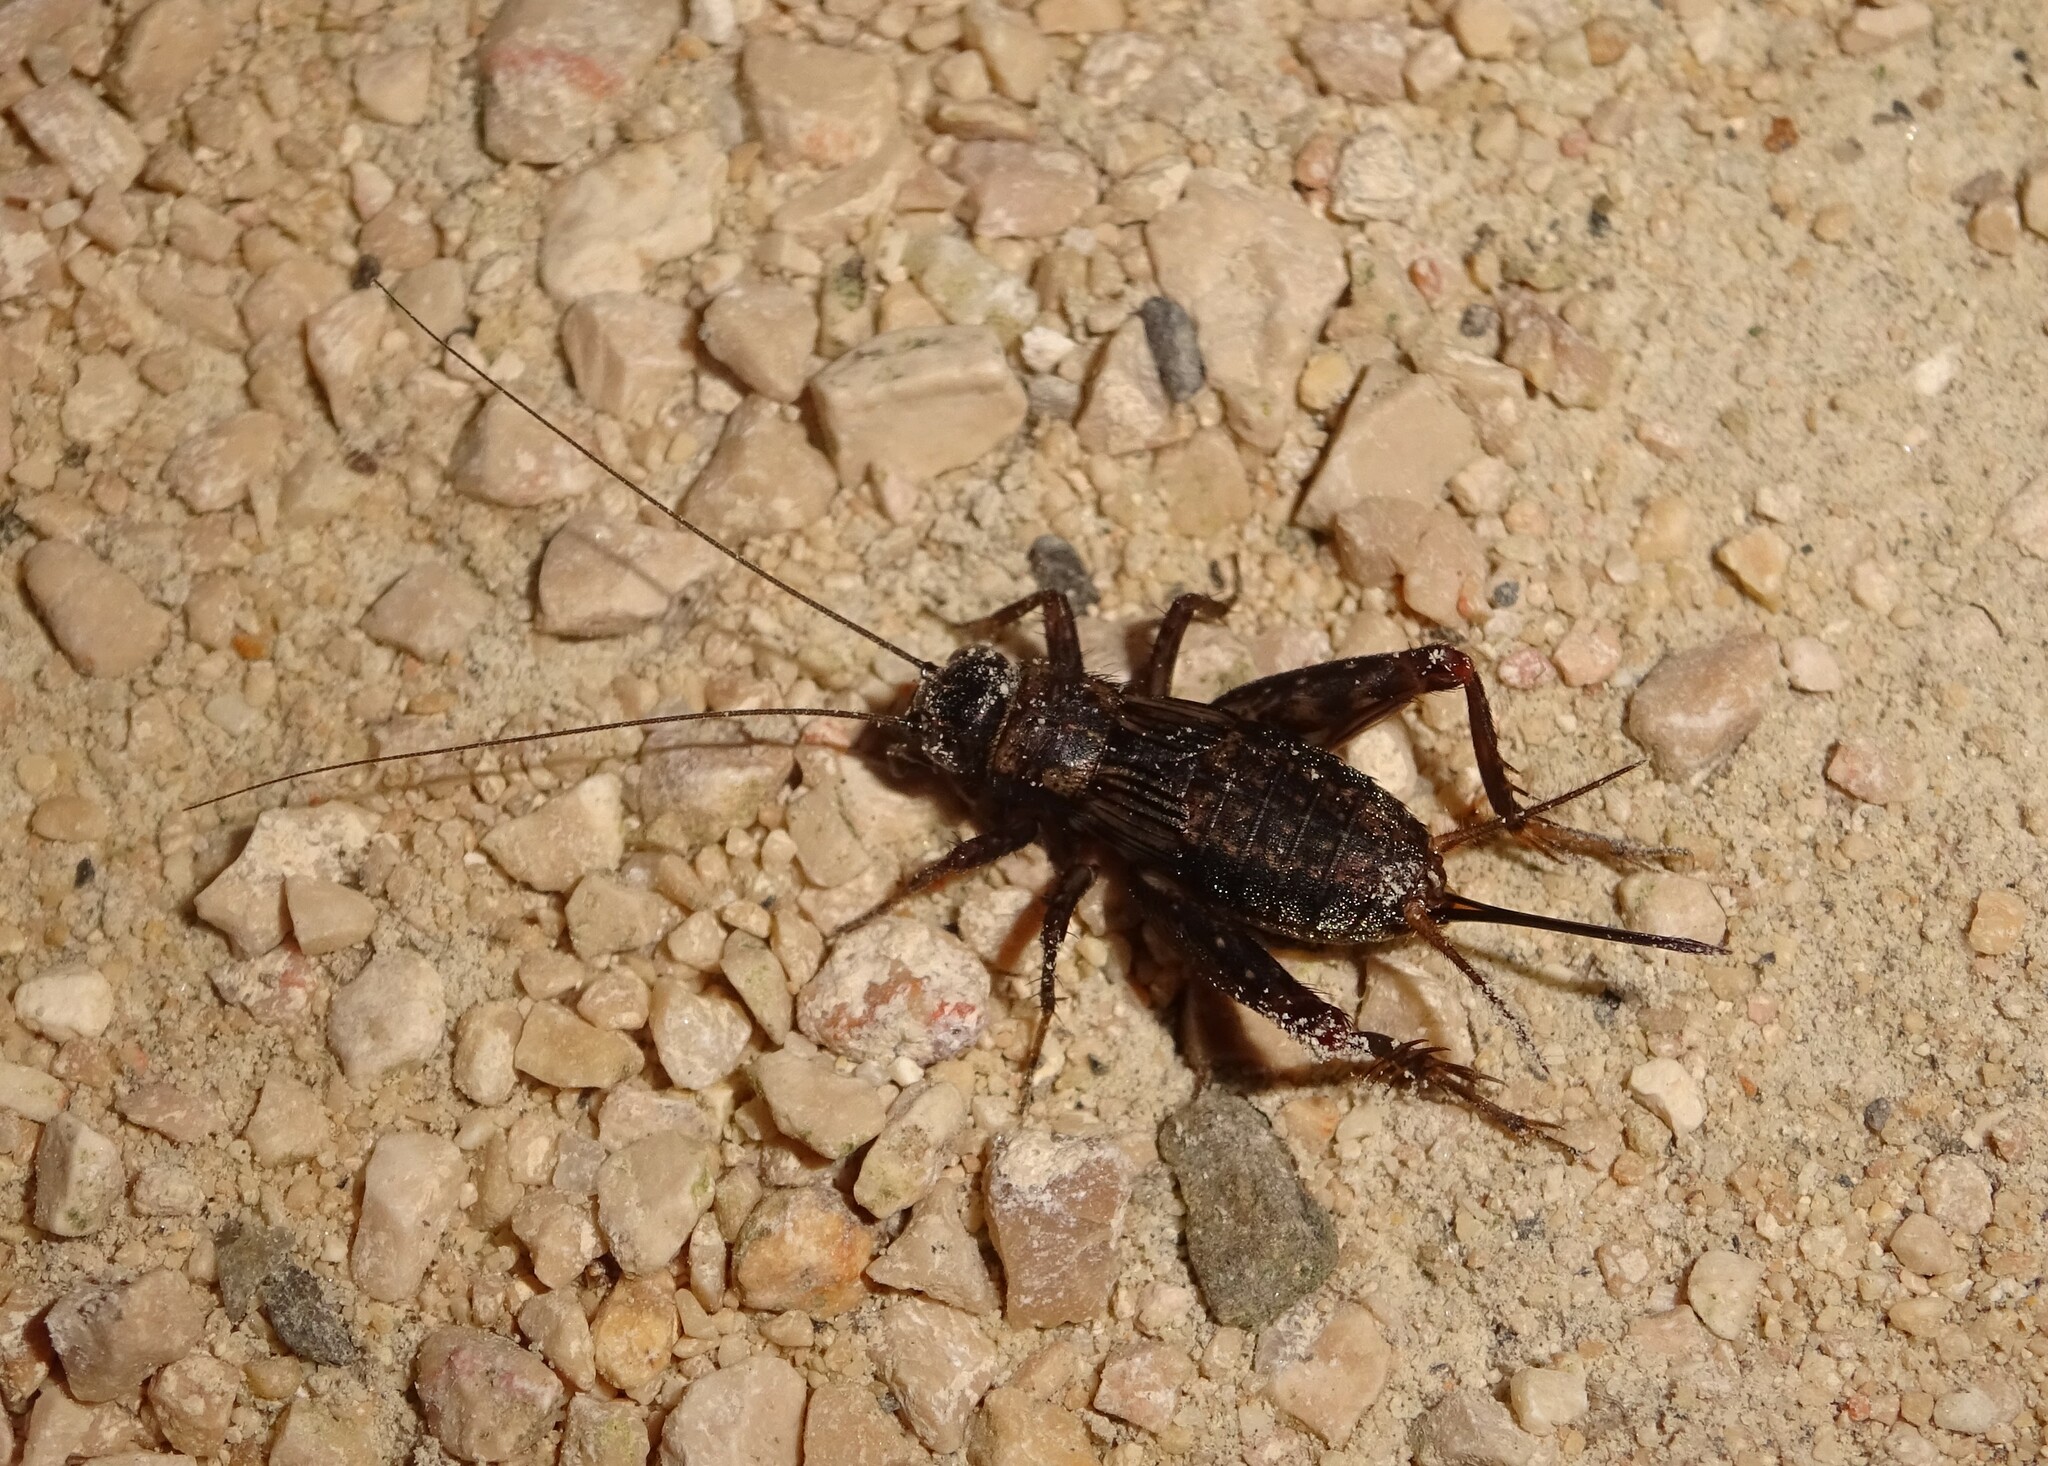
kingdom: Animalia
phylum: Arthropoda
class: Insecta
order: Orthoptera
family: Trigonidiidae
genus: Nemobius
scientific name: Nemobius sylvestris
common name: Wood-cricket
